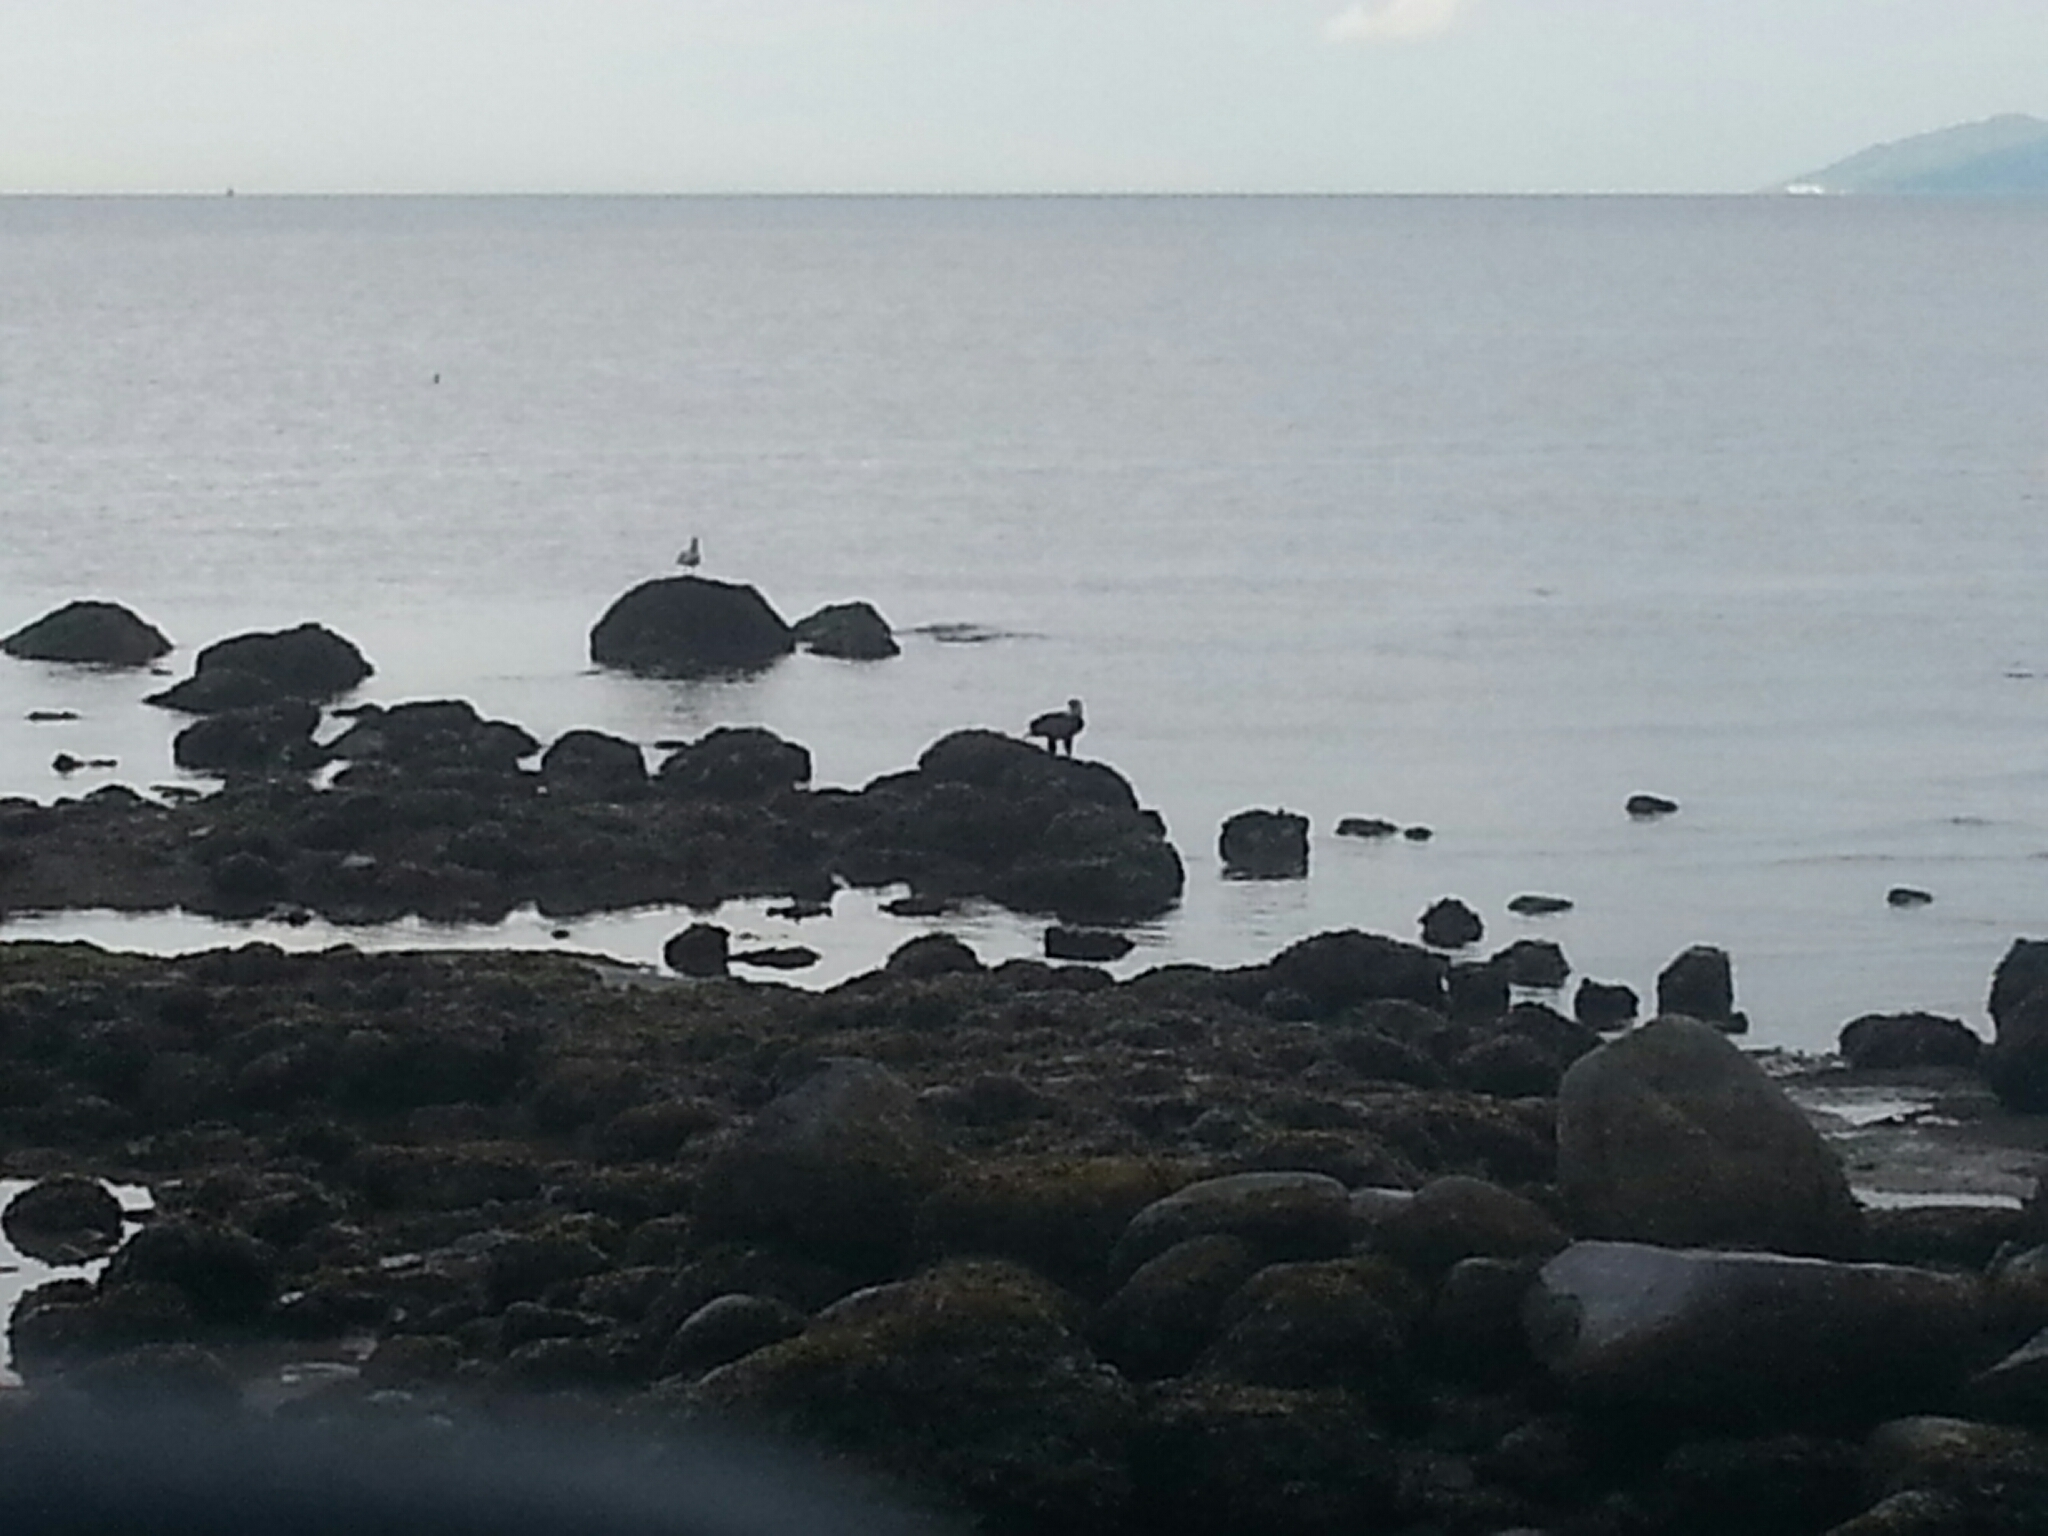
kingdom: Animalia
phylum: Chordata
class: Aves
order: Accipitriformes
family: Accipitridae
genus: Haliaeetus
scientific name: Haliaeetus leucocephalus
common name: Bald eagle
